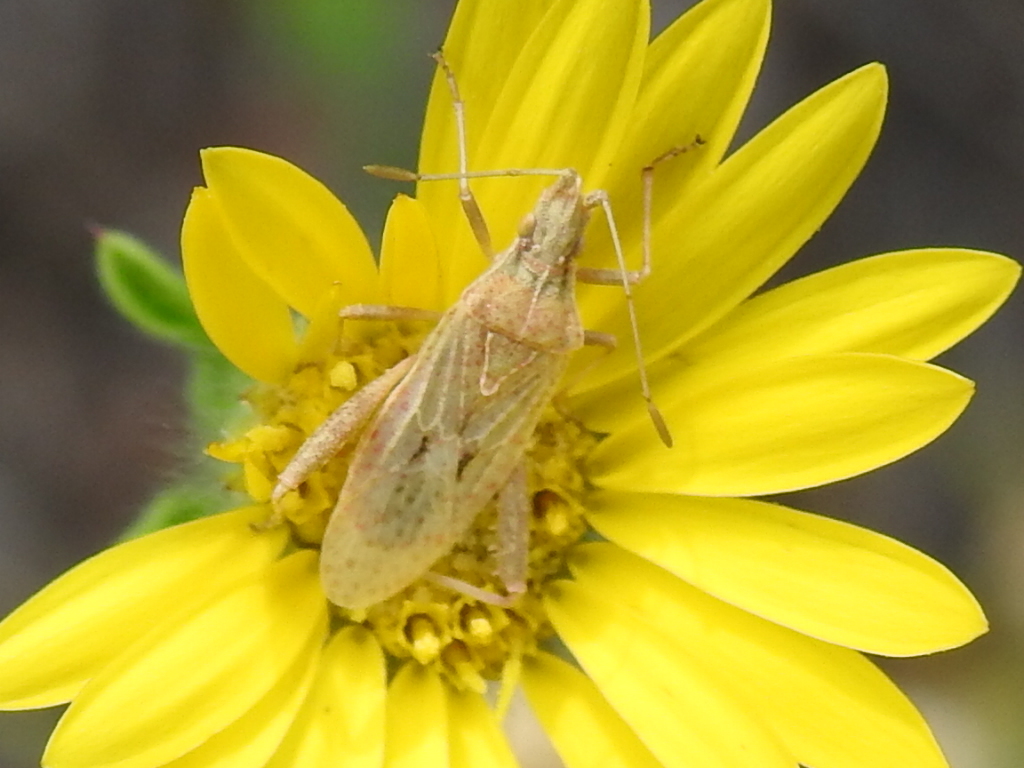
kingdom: Animalia
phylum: Arthropoda
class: Insecta
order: Hemiptera
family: Rhopalidae
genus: Harmostes
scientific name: Harmostes reflexulus
